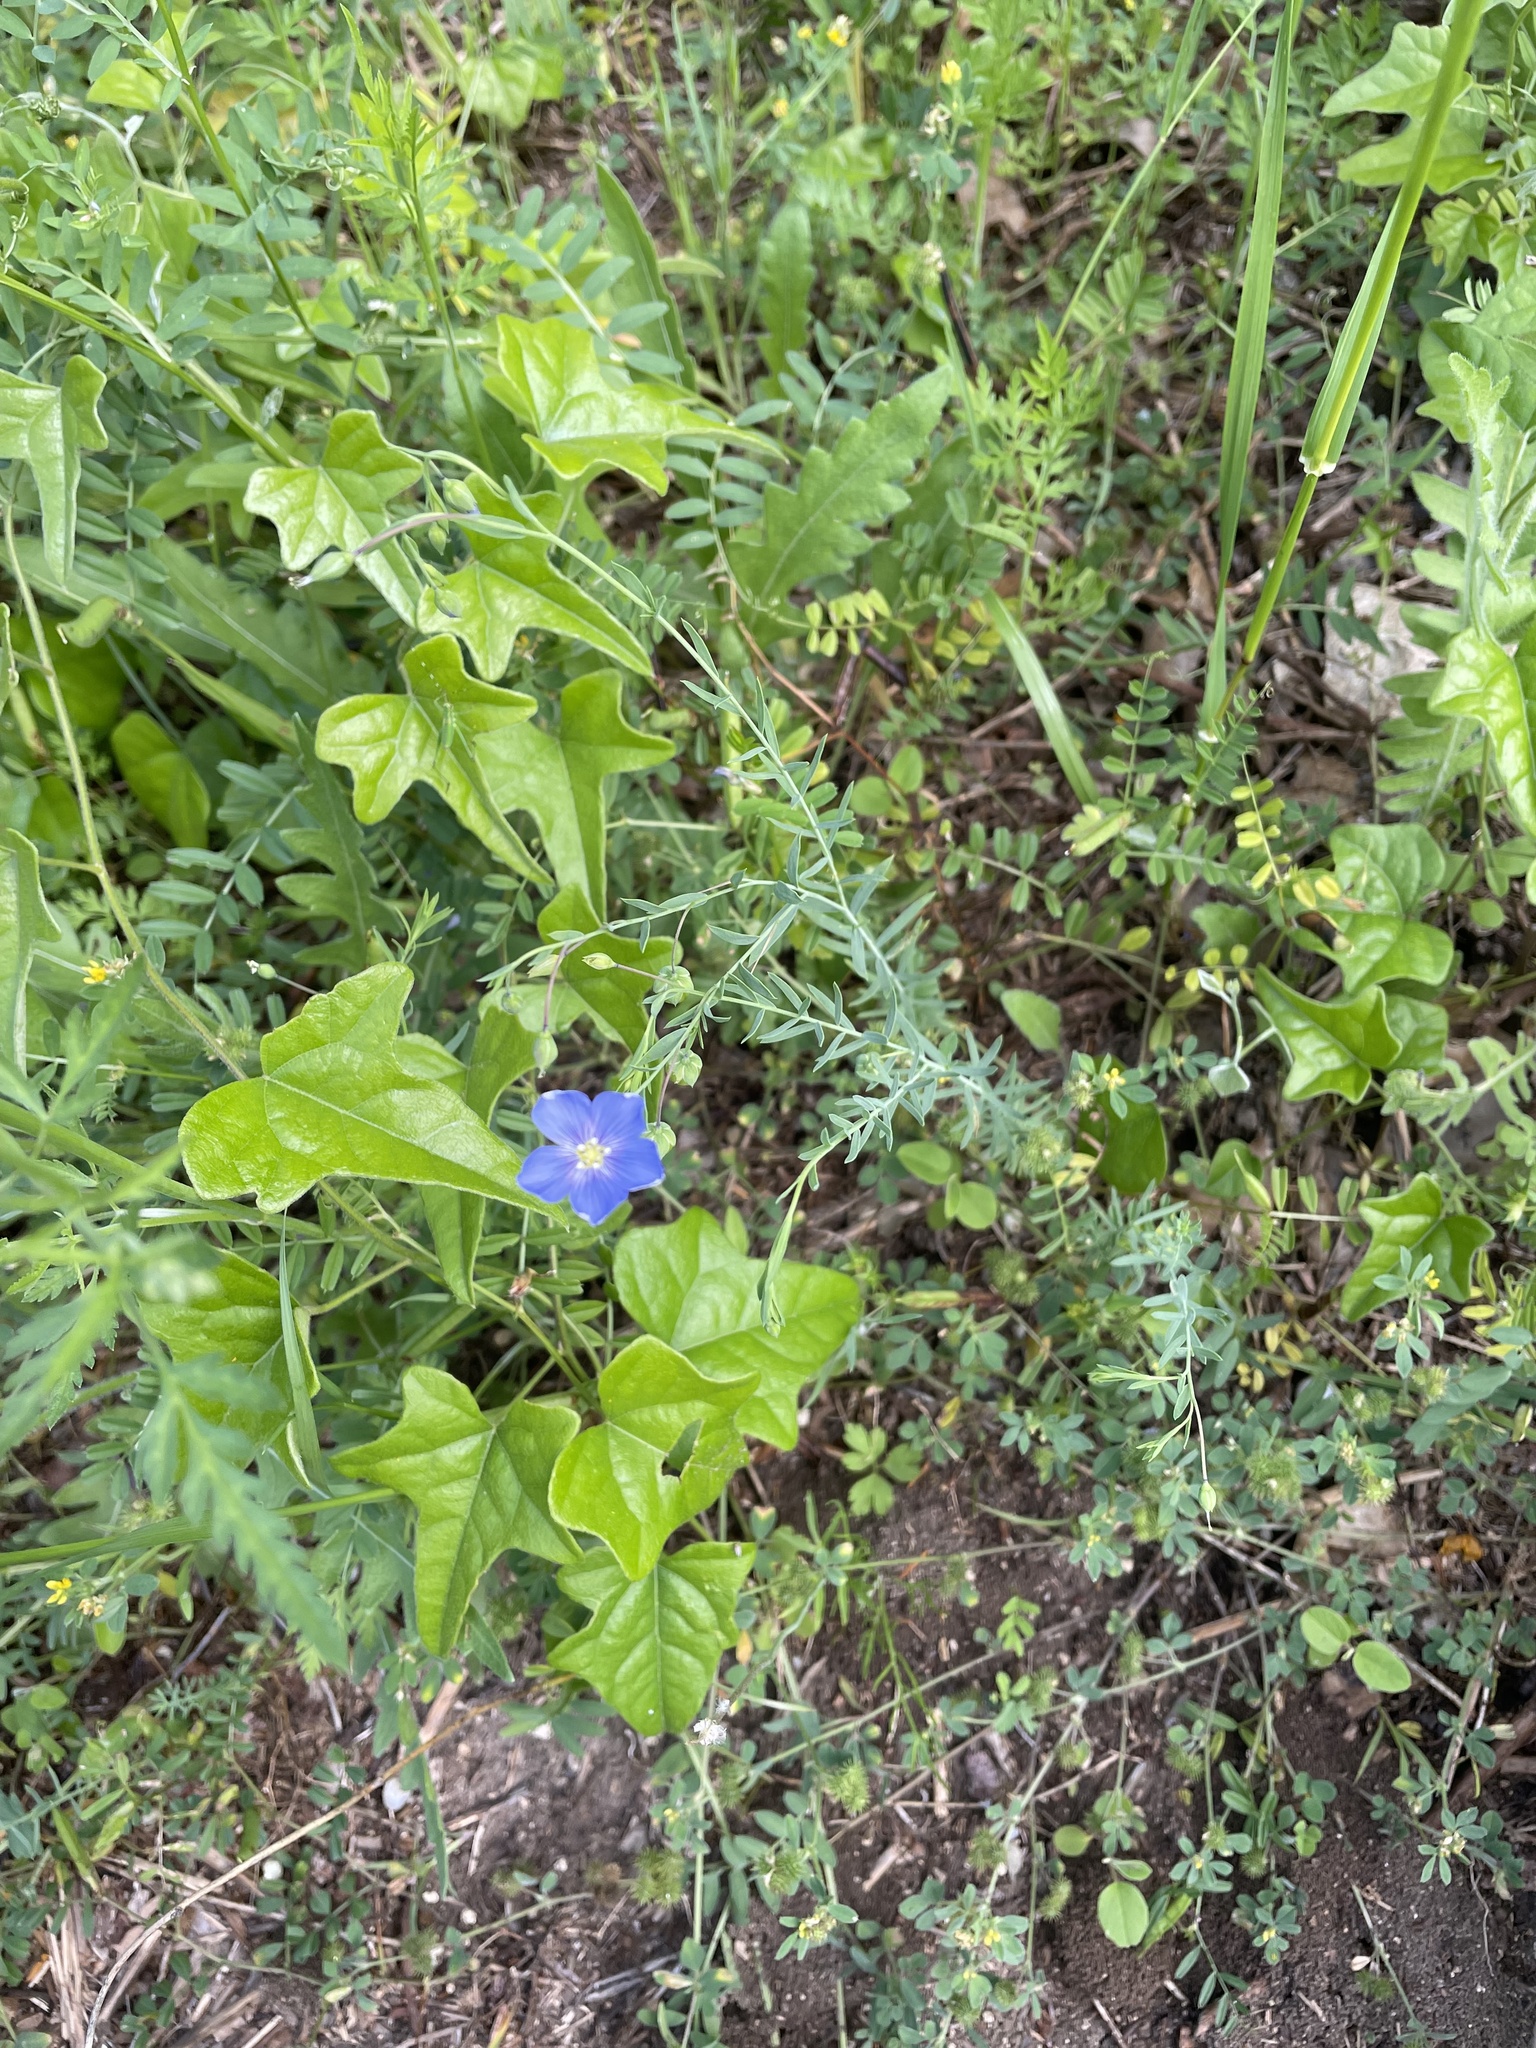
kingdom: Plantae
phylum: Tracheophyta
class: Magnoliopsida
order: Malpighiales
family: Linaceae
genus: Linum
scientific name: Linum pratense
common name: Norton's flax
